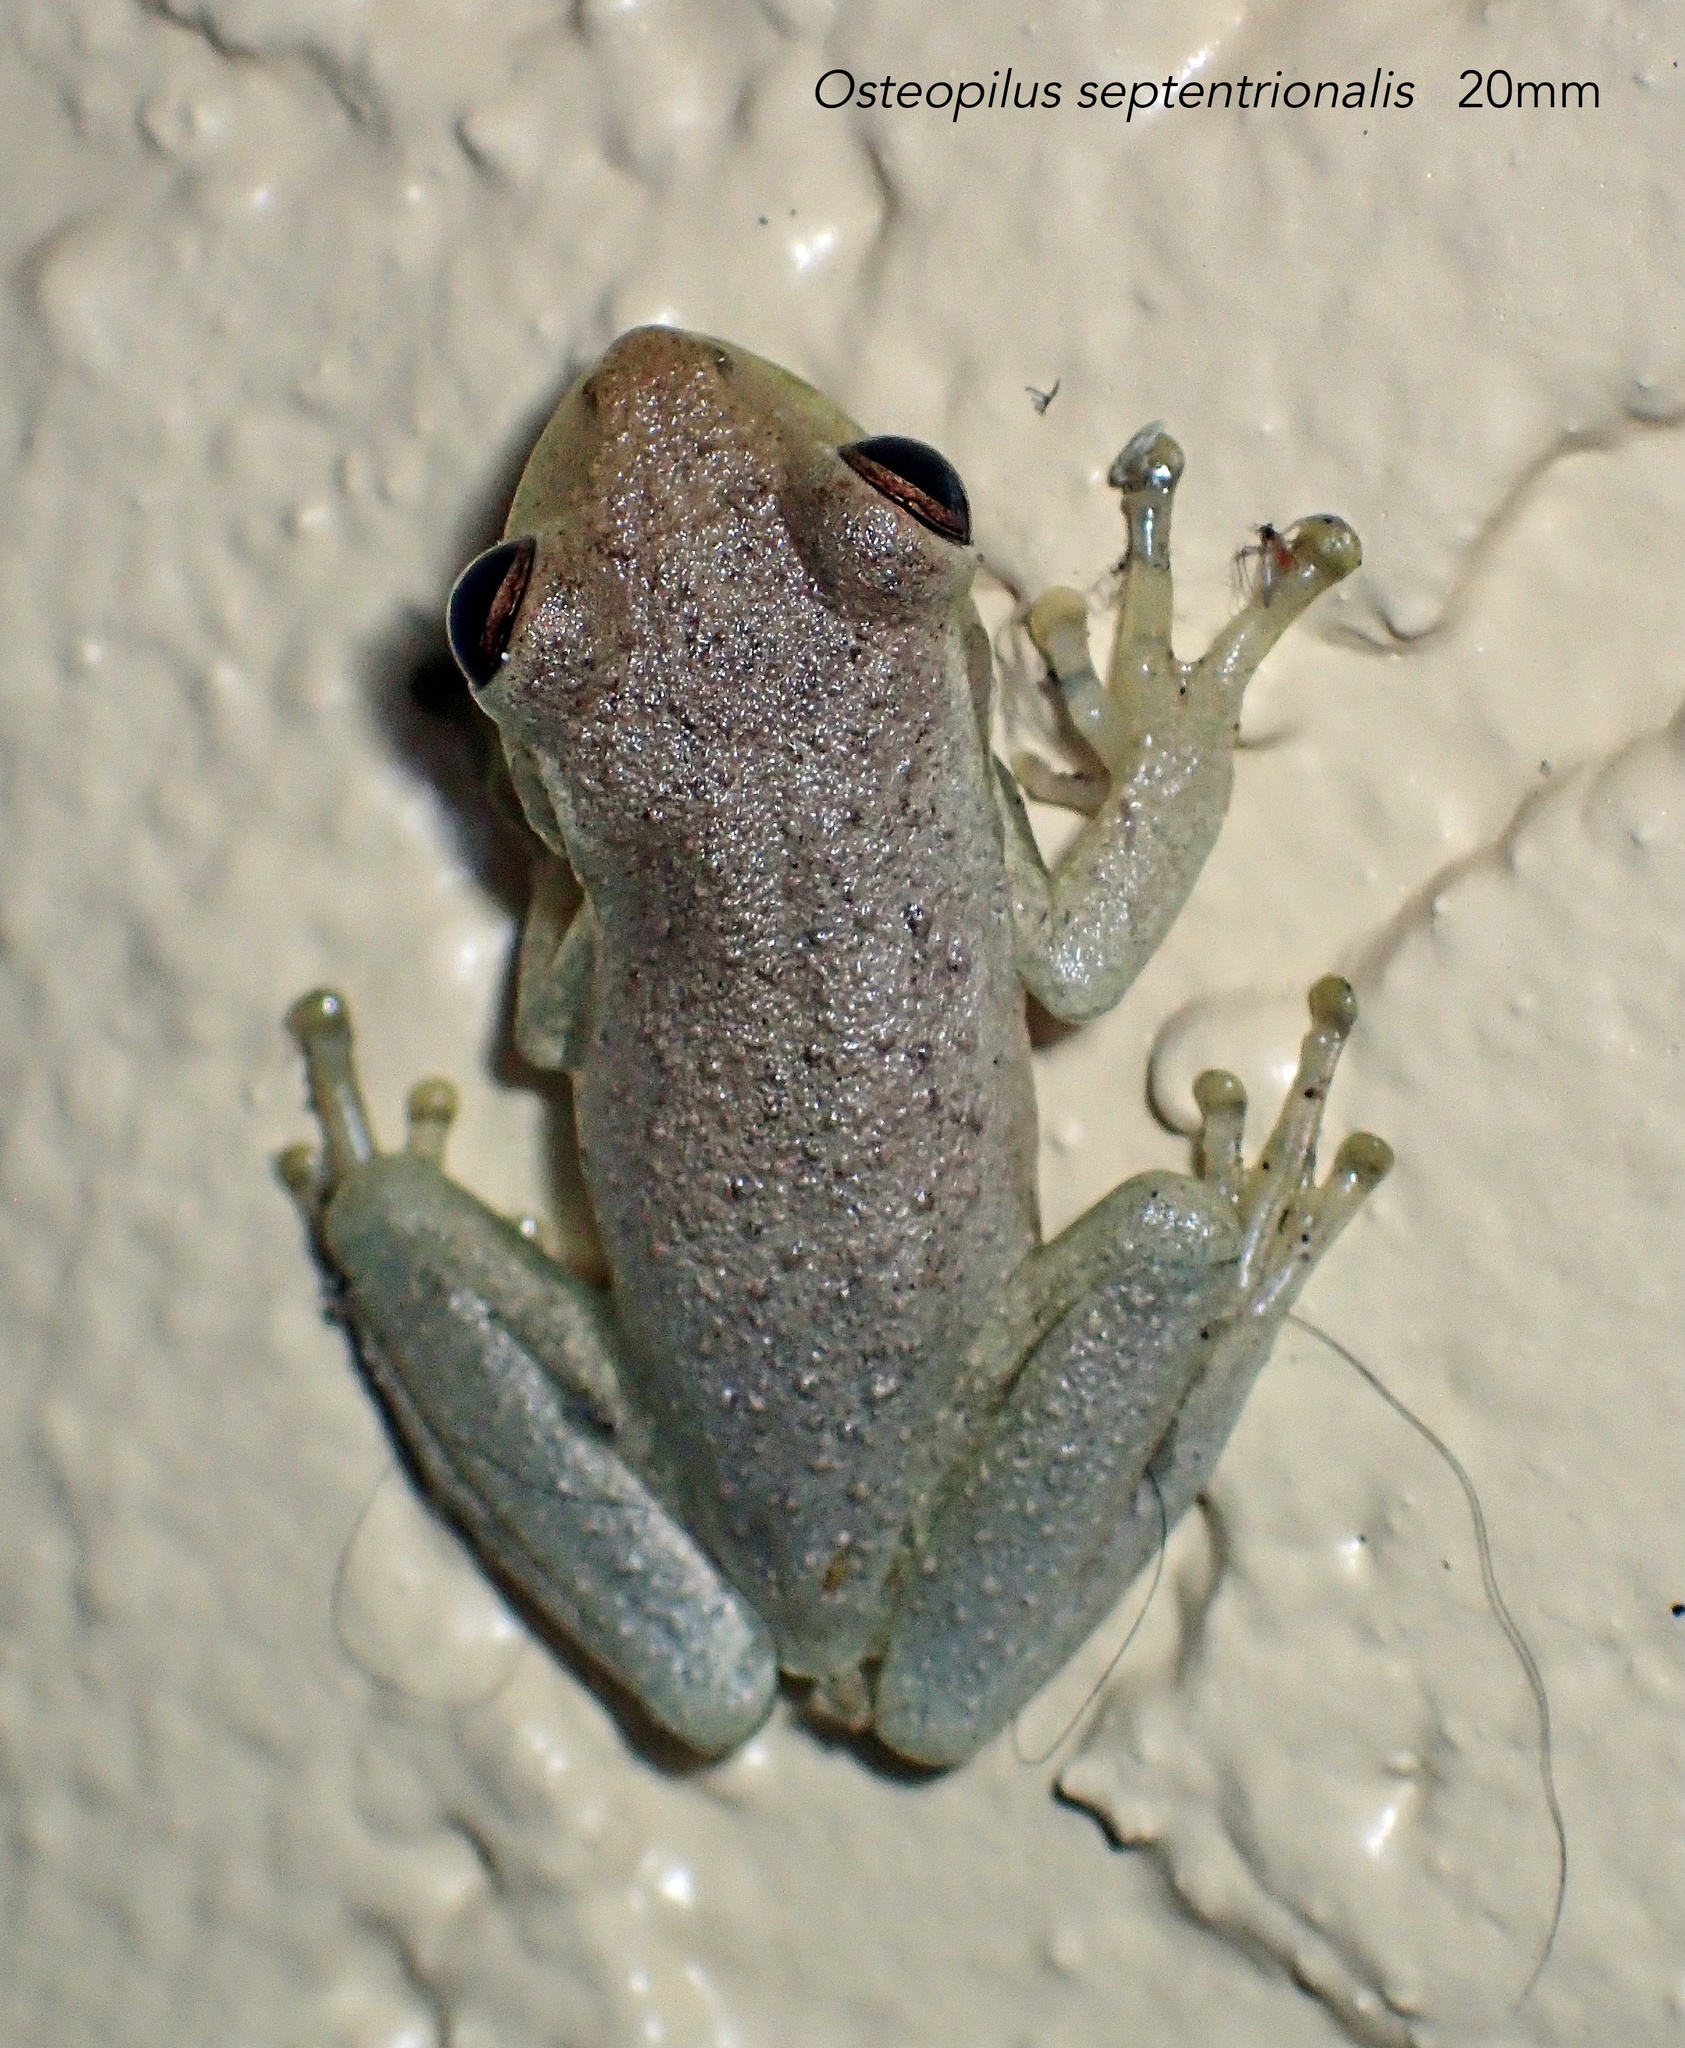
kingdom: Animalia
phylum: Chordata
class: Amphibia
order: Anura
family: Hylidae
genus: Osteopilus
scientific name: Osteopilus septentrionalis
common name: Cuban treefrog
